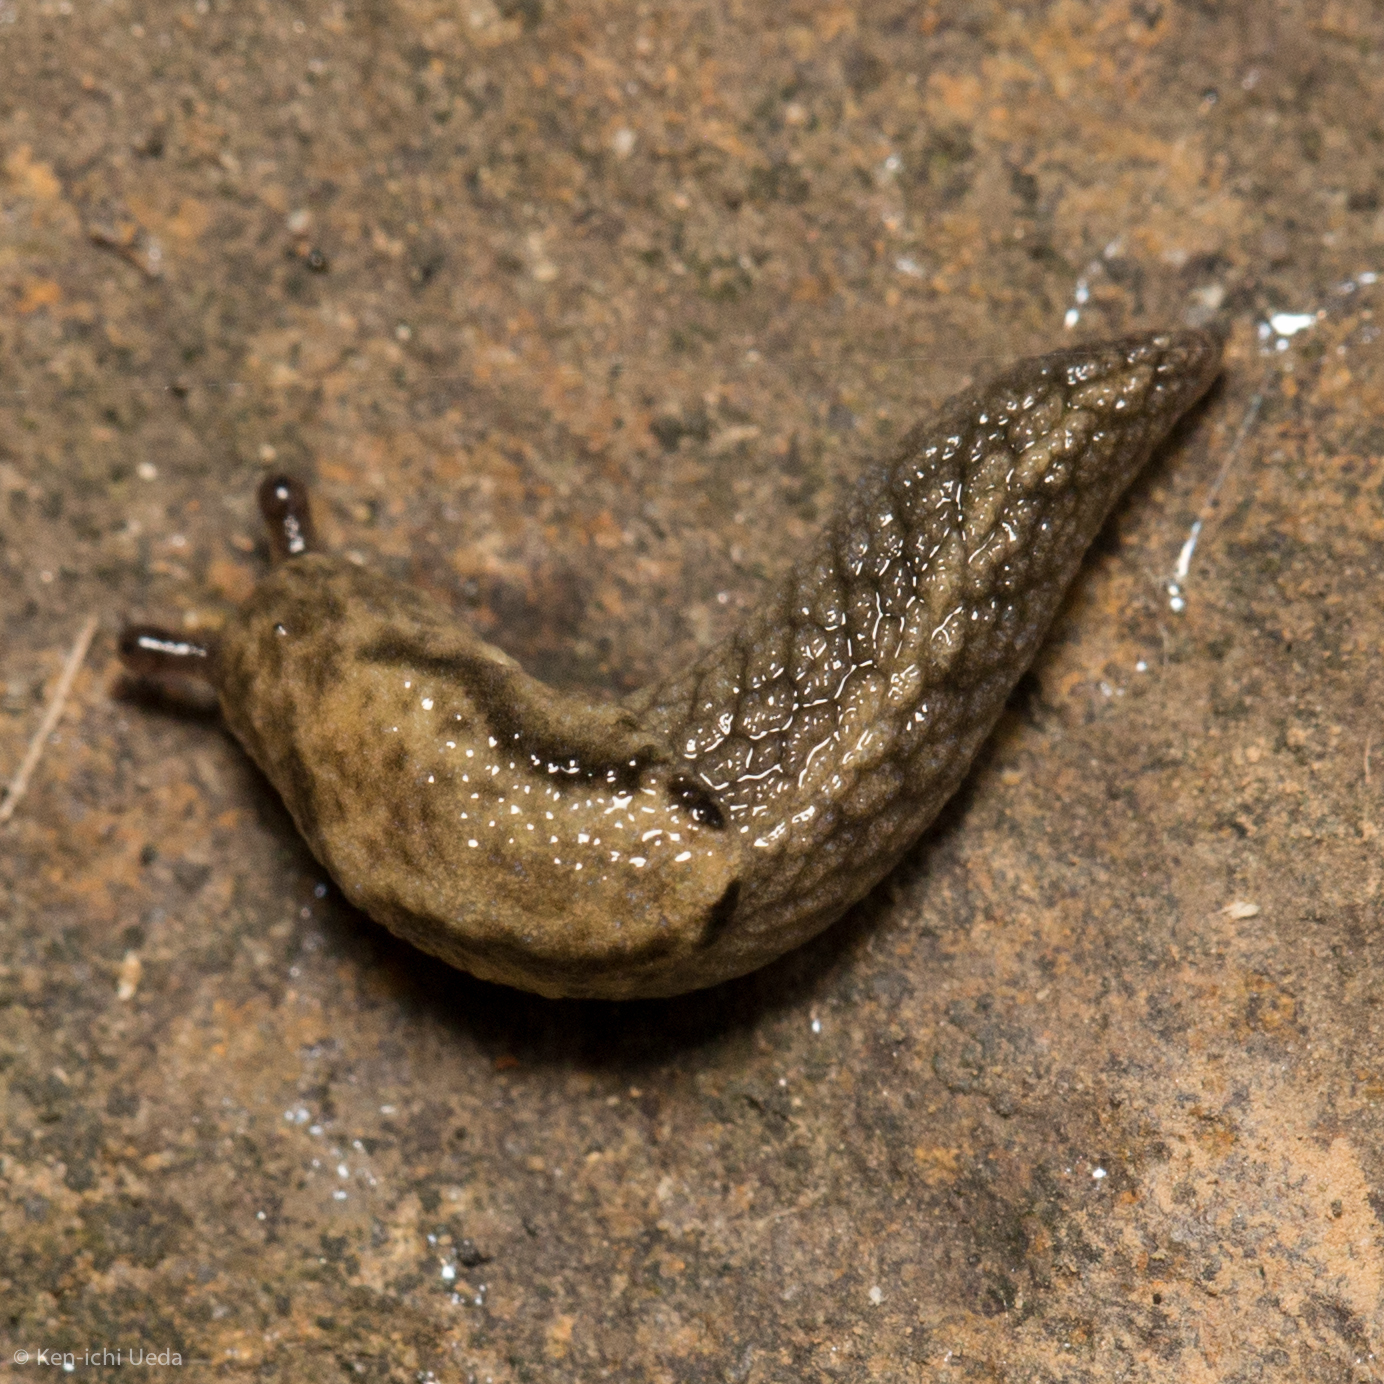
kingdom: Animalia
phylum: Mollusca
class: Gastropoda
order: Stylommatophora
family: Ariolimacidae
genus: Prophysaon
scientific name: Prophysaon andersonii
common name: Reticulate taildropper
